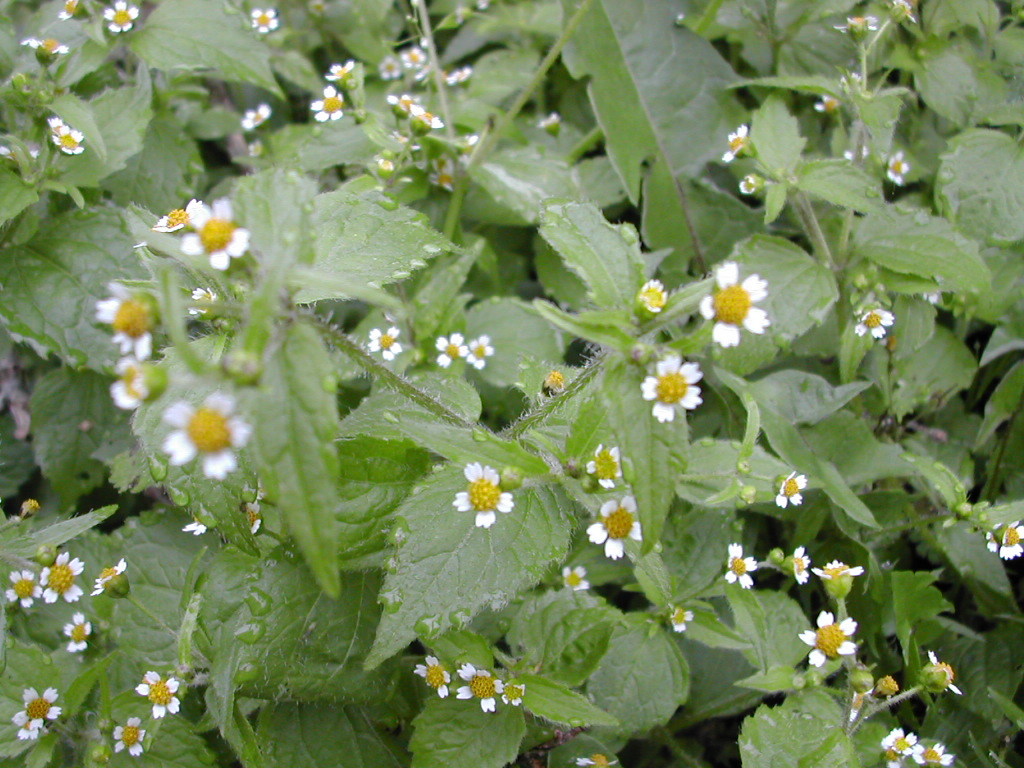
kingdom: Plantae
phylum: Tracheophyta
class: Magnoliopsida
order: Asterales
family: Asteraceae
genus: Galinsoga
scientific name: Galinsoga quadriradiata
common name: Shaggy soldier
